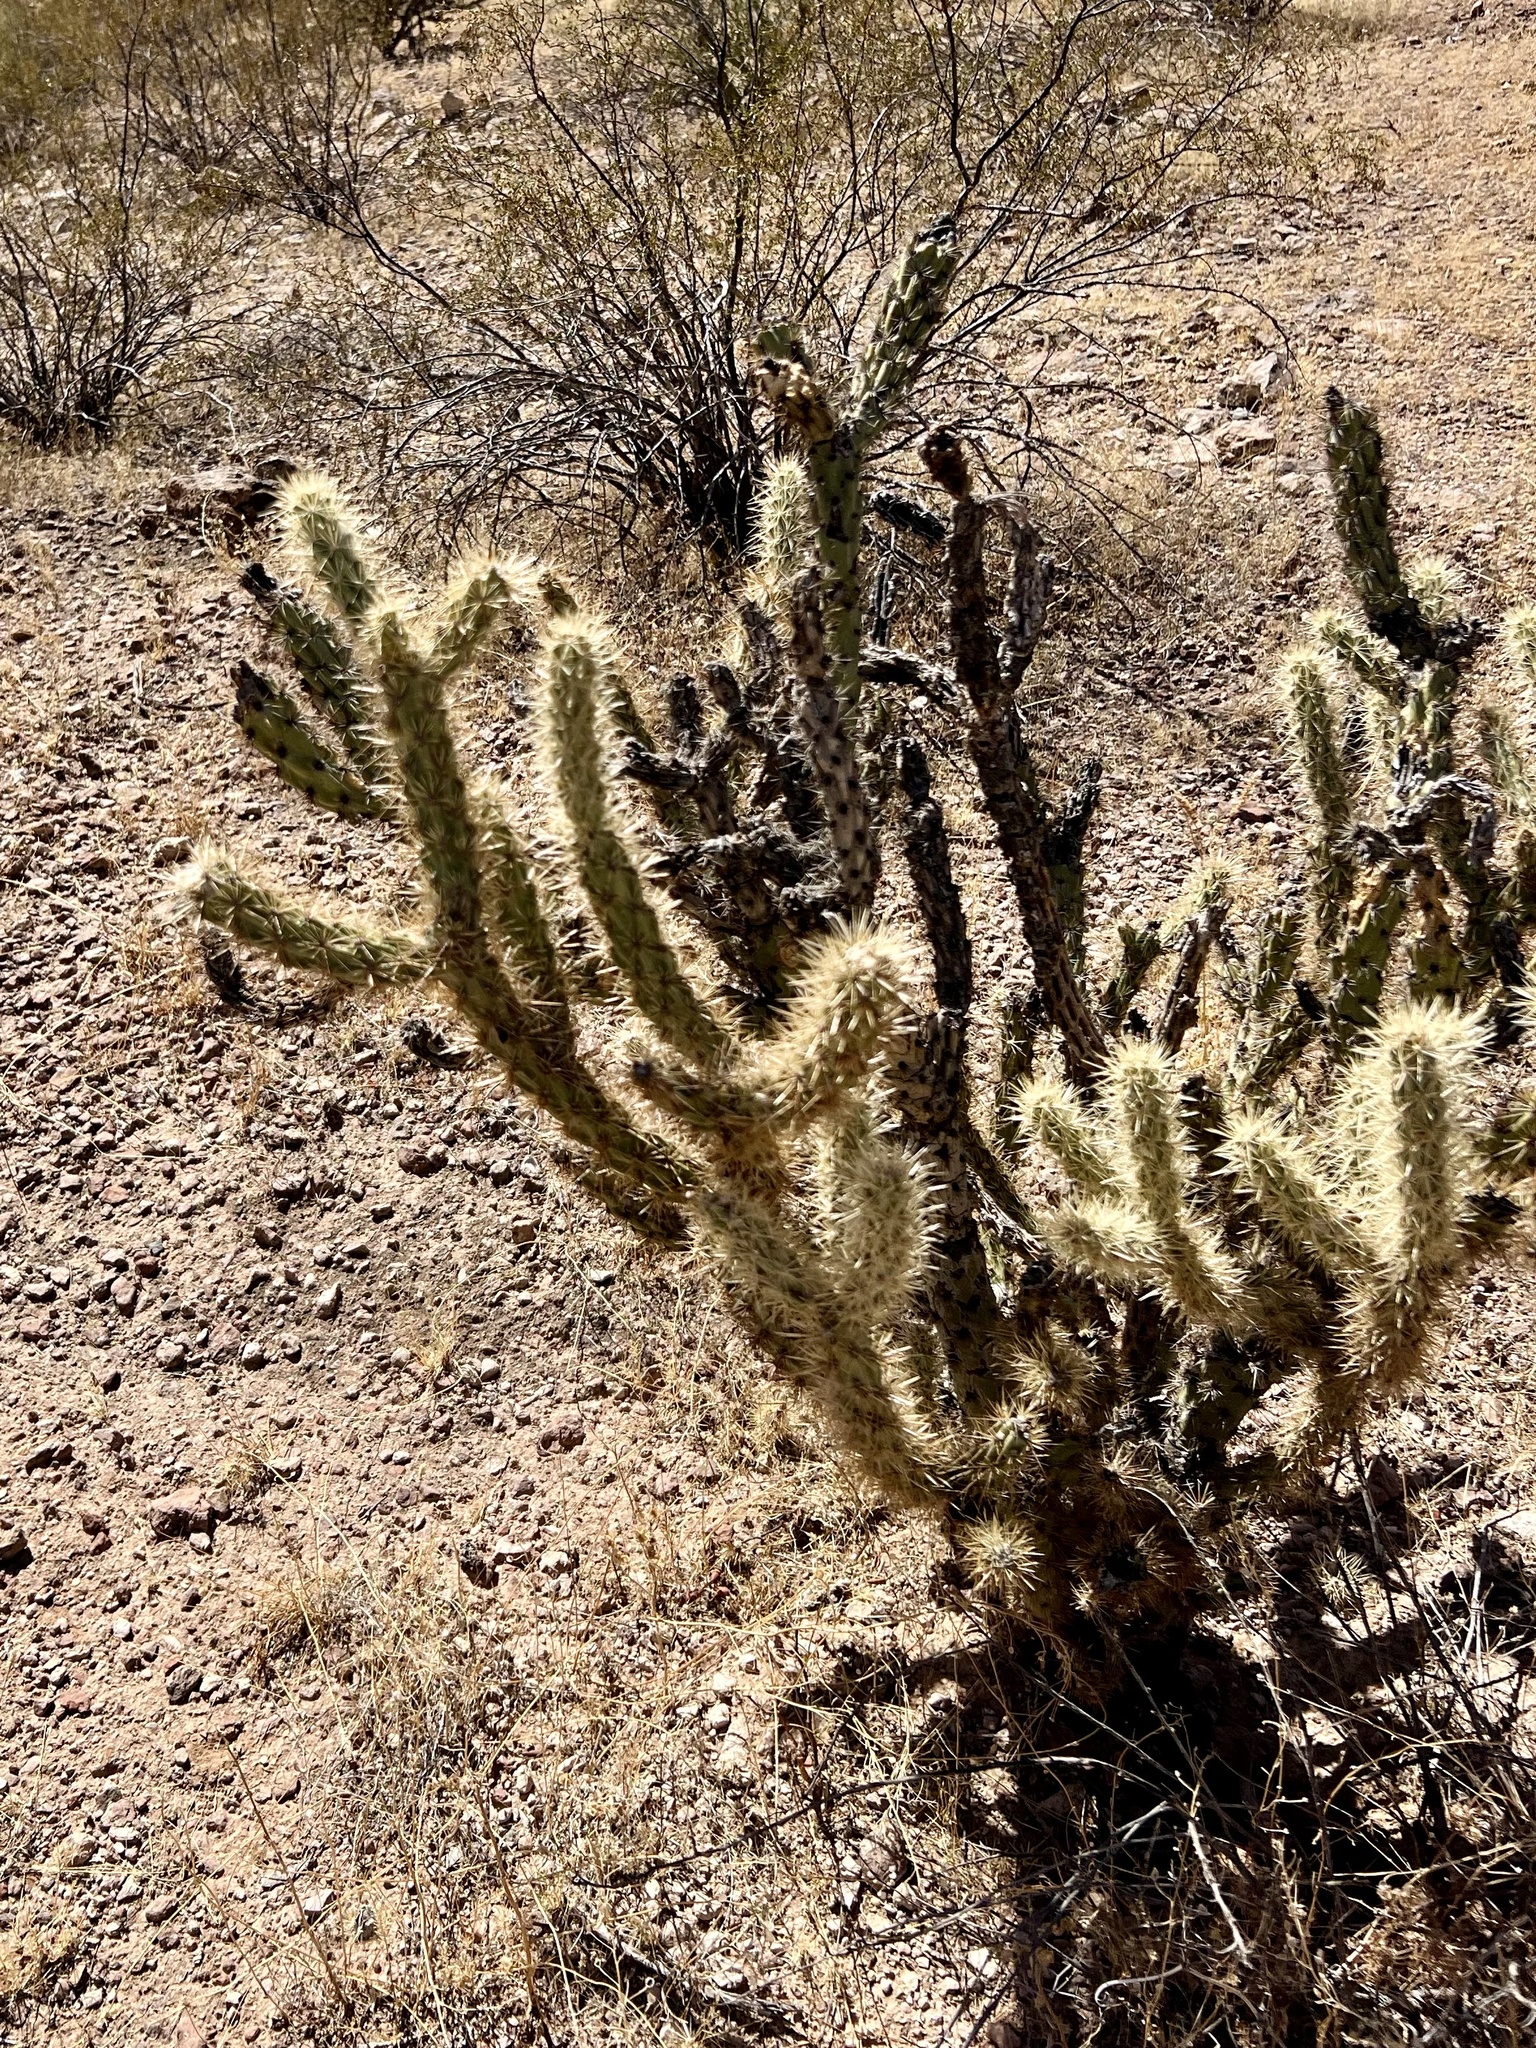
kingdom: Plantae
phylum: Tracheophyta
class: Magnoliopsida
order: Caryophyllales
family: Cactaceae
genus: Cylindropuntia
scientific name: Cylindropuntia acanthocarpa
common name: Buckhorn cholla
